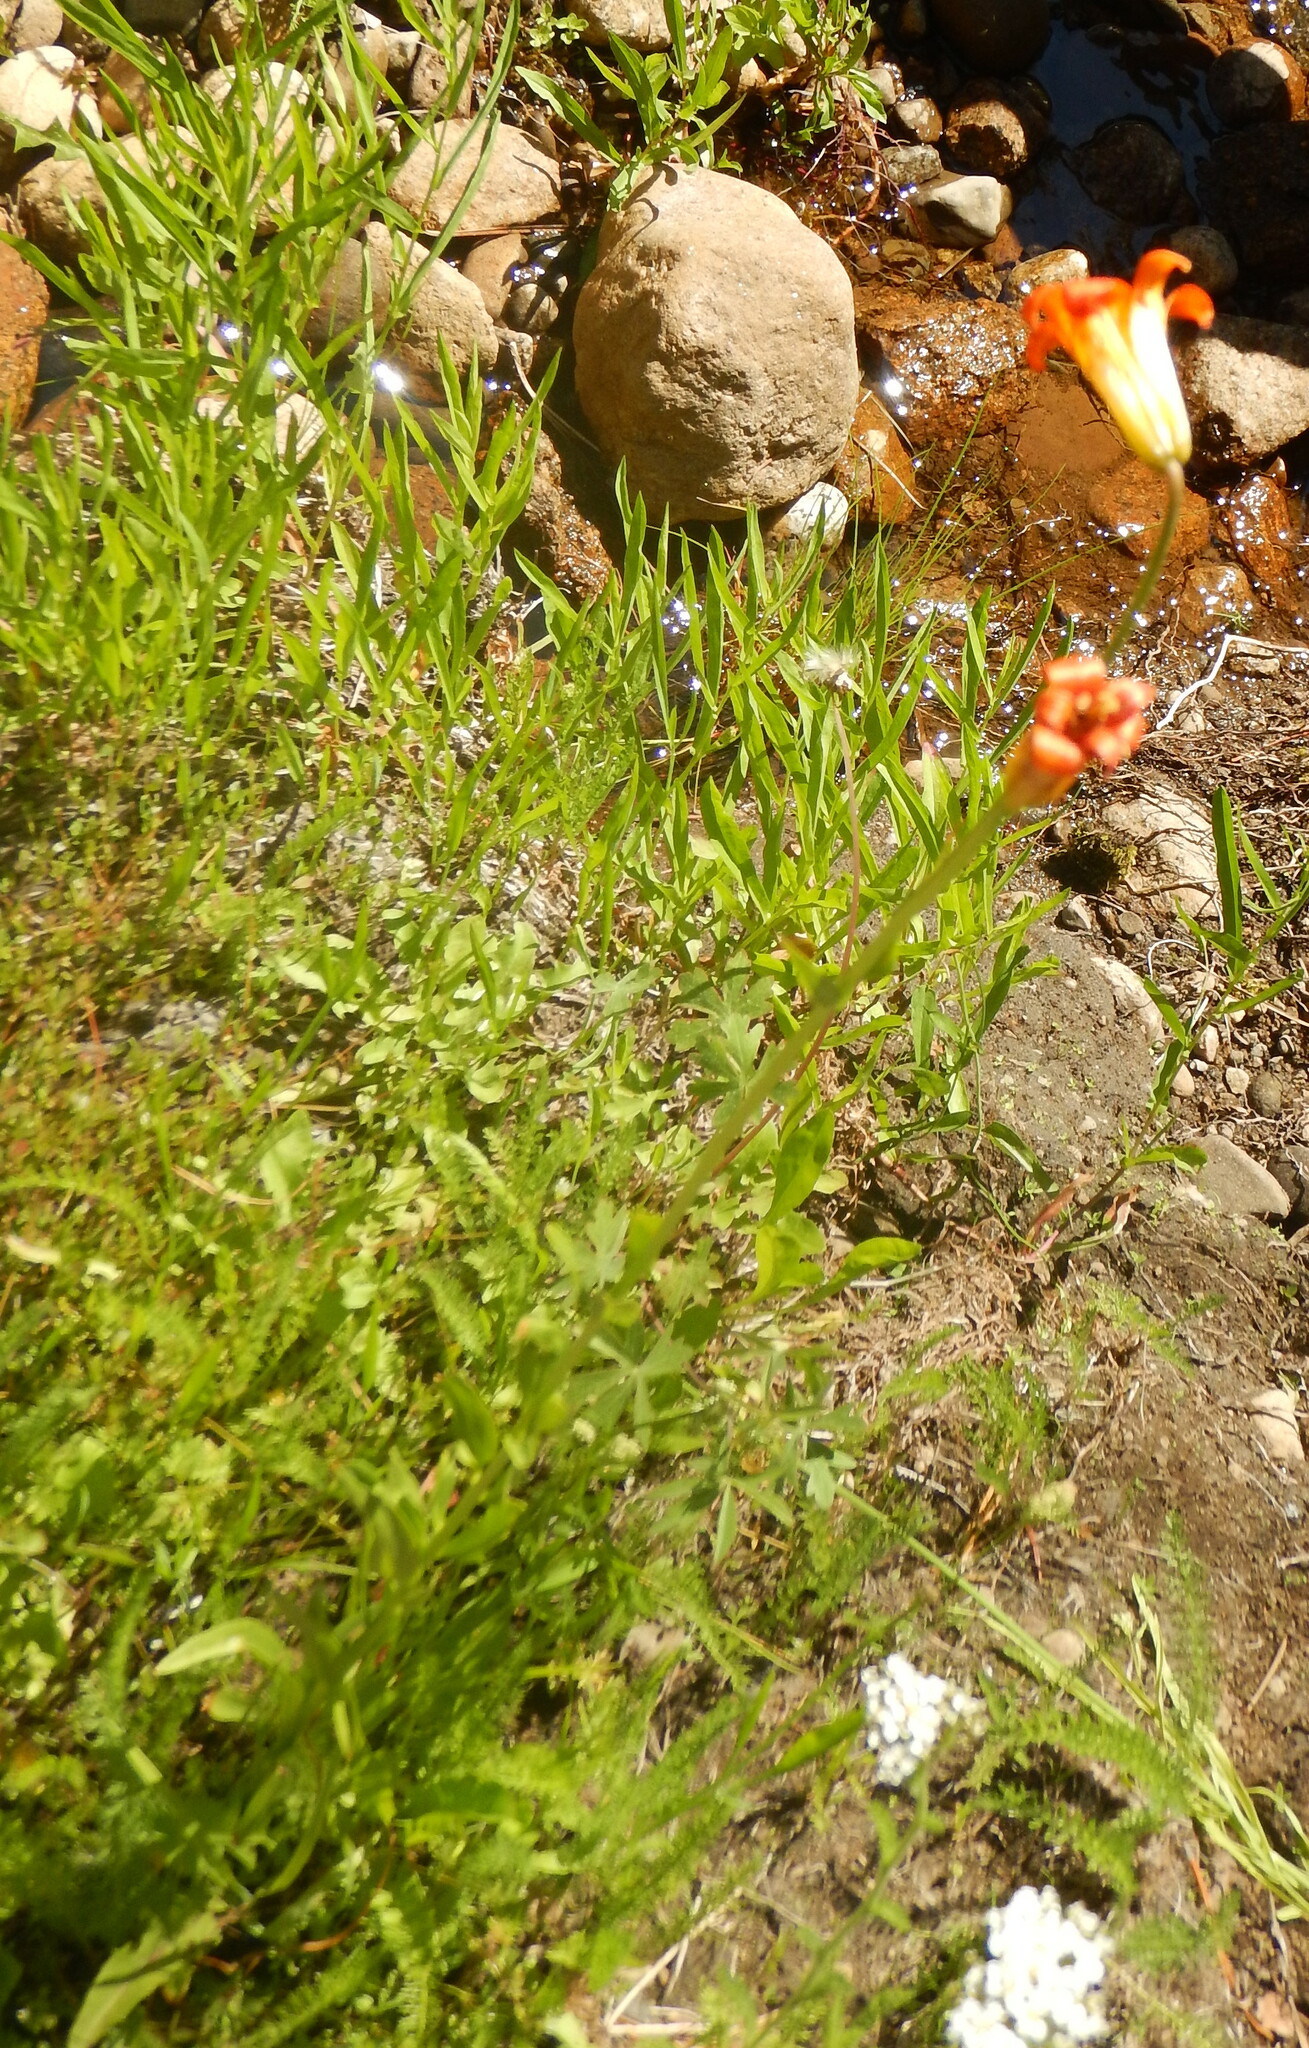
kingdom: Plantae
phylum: Tracheophyta
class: Liliopsida
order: Liliales
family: Liliaceae
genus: Lilium
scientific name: Lilium parvum
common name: Alpine lily
